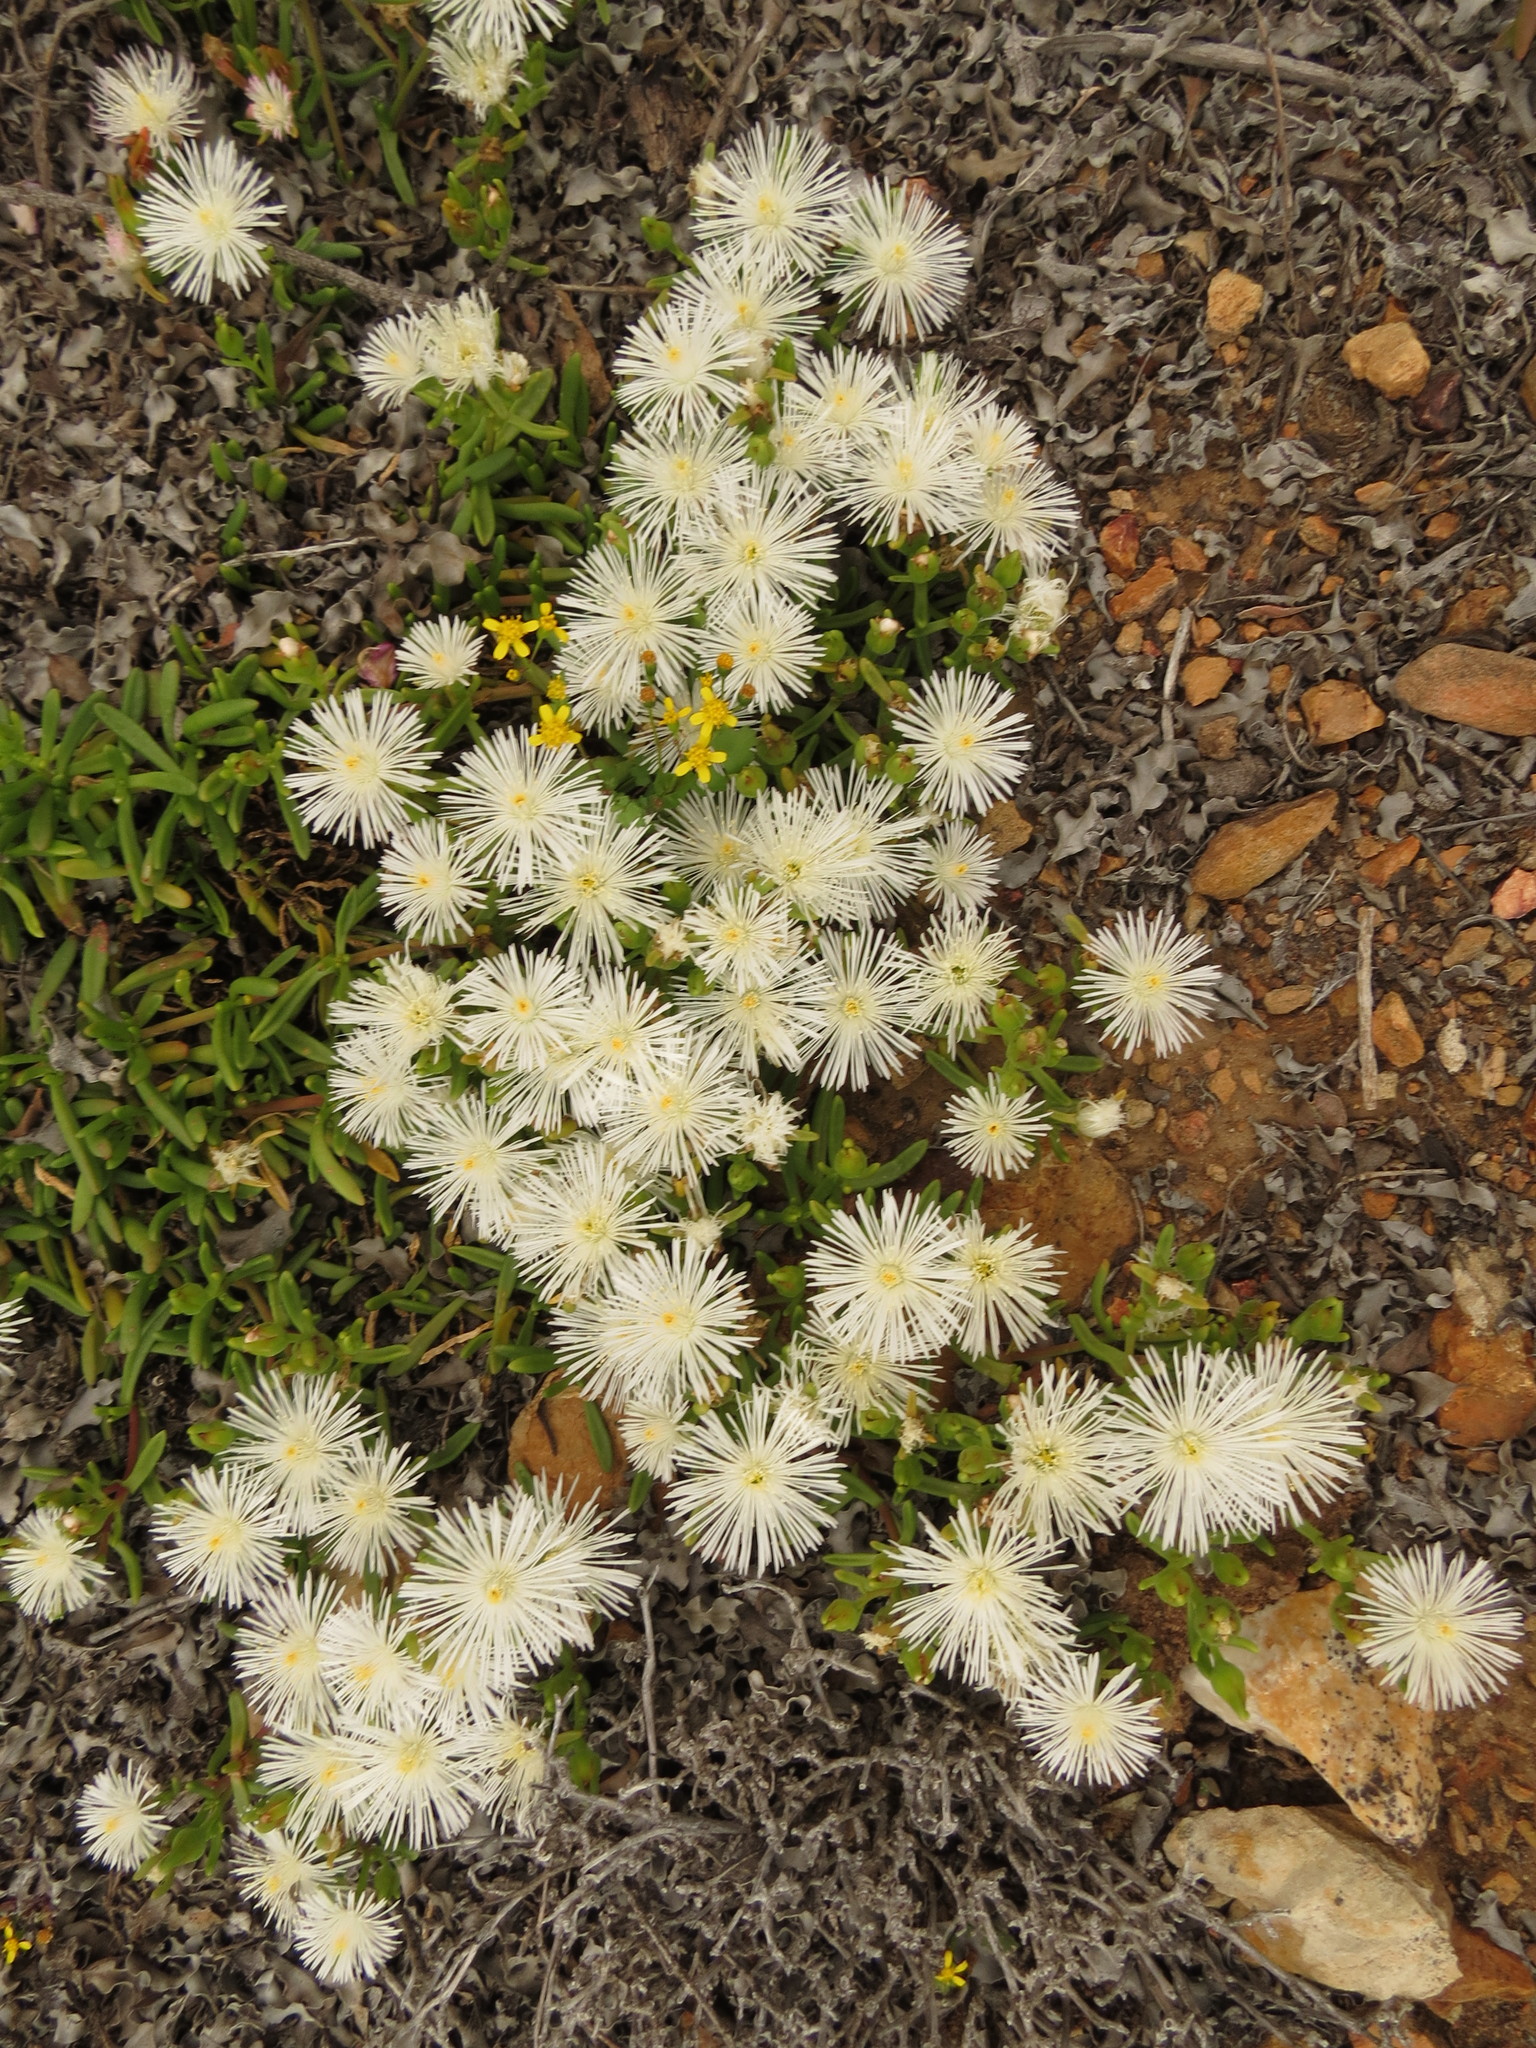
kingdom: Plantae
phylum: Tracheophyta
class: Magnoliopsida
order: Caryophyllales
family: Aizoaceae
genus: Mesembryanthemum
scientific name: Mesembryanthemum longistylum
